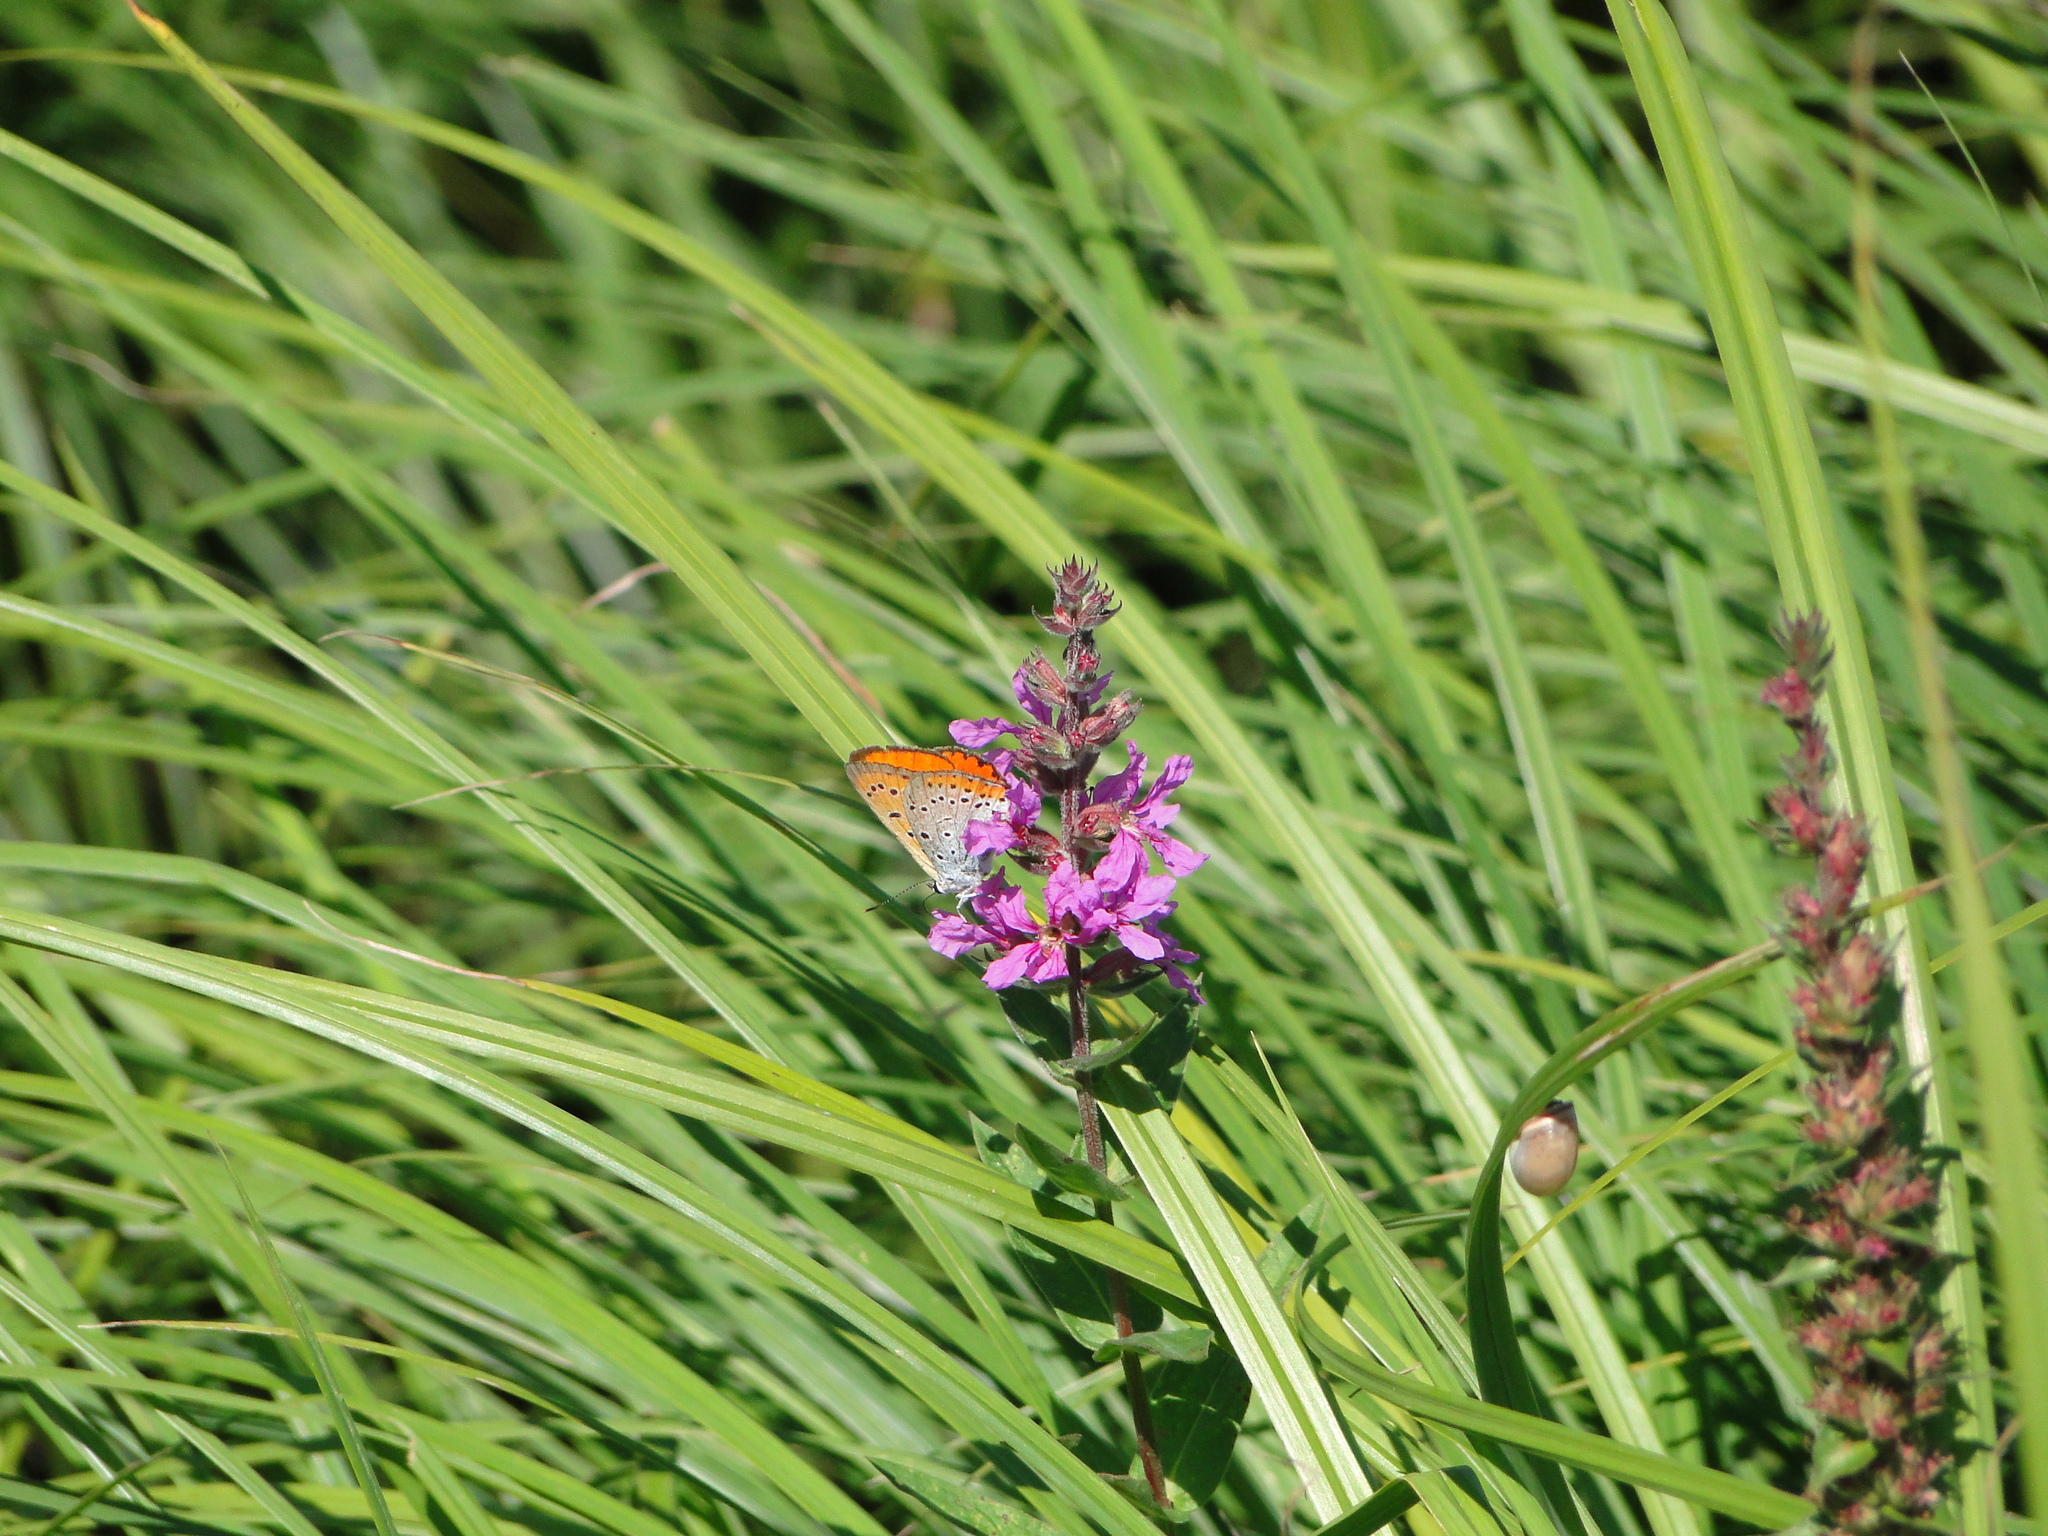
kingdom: Animalia
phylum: Arthropoda
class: Insecta
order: Lepidoptera
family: Lycaenidae
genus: Lycaena
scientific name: Lycaena dispar
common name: Large copper
